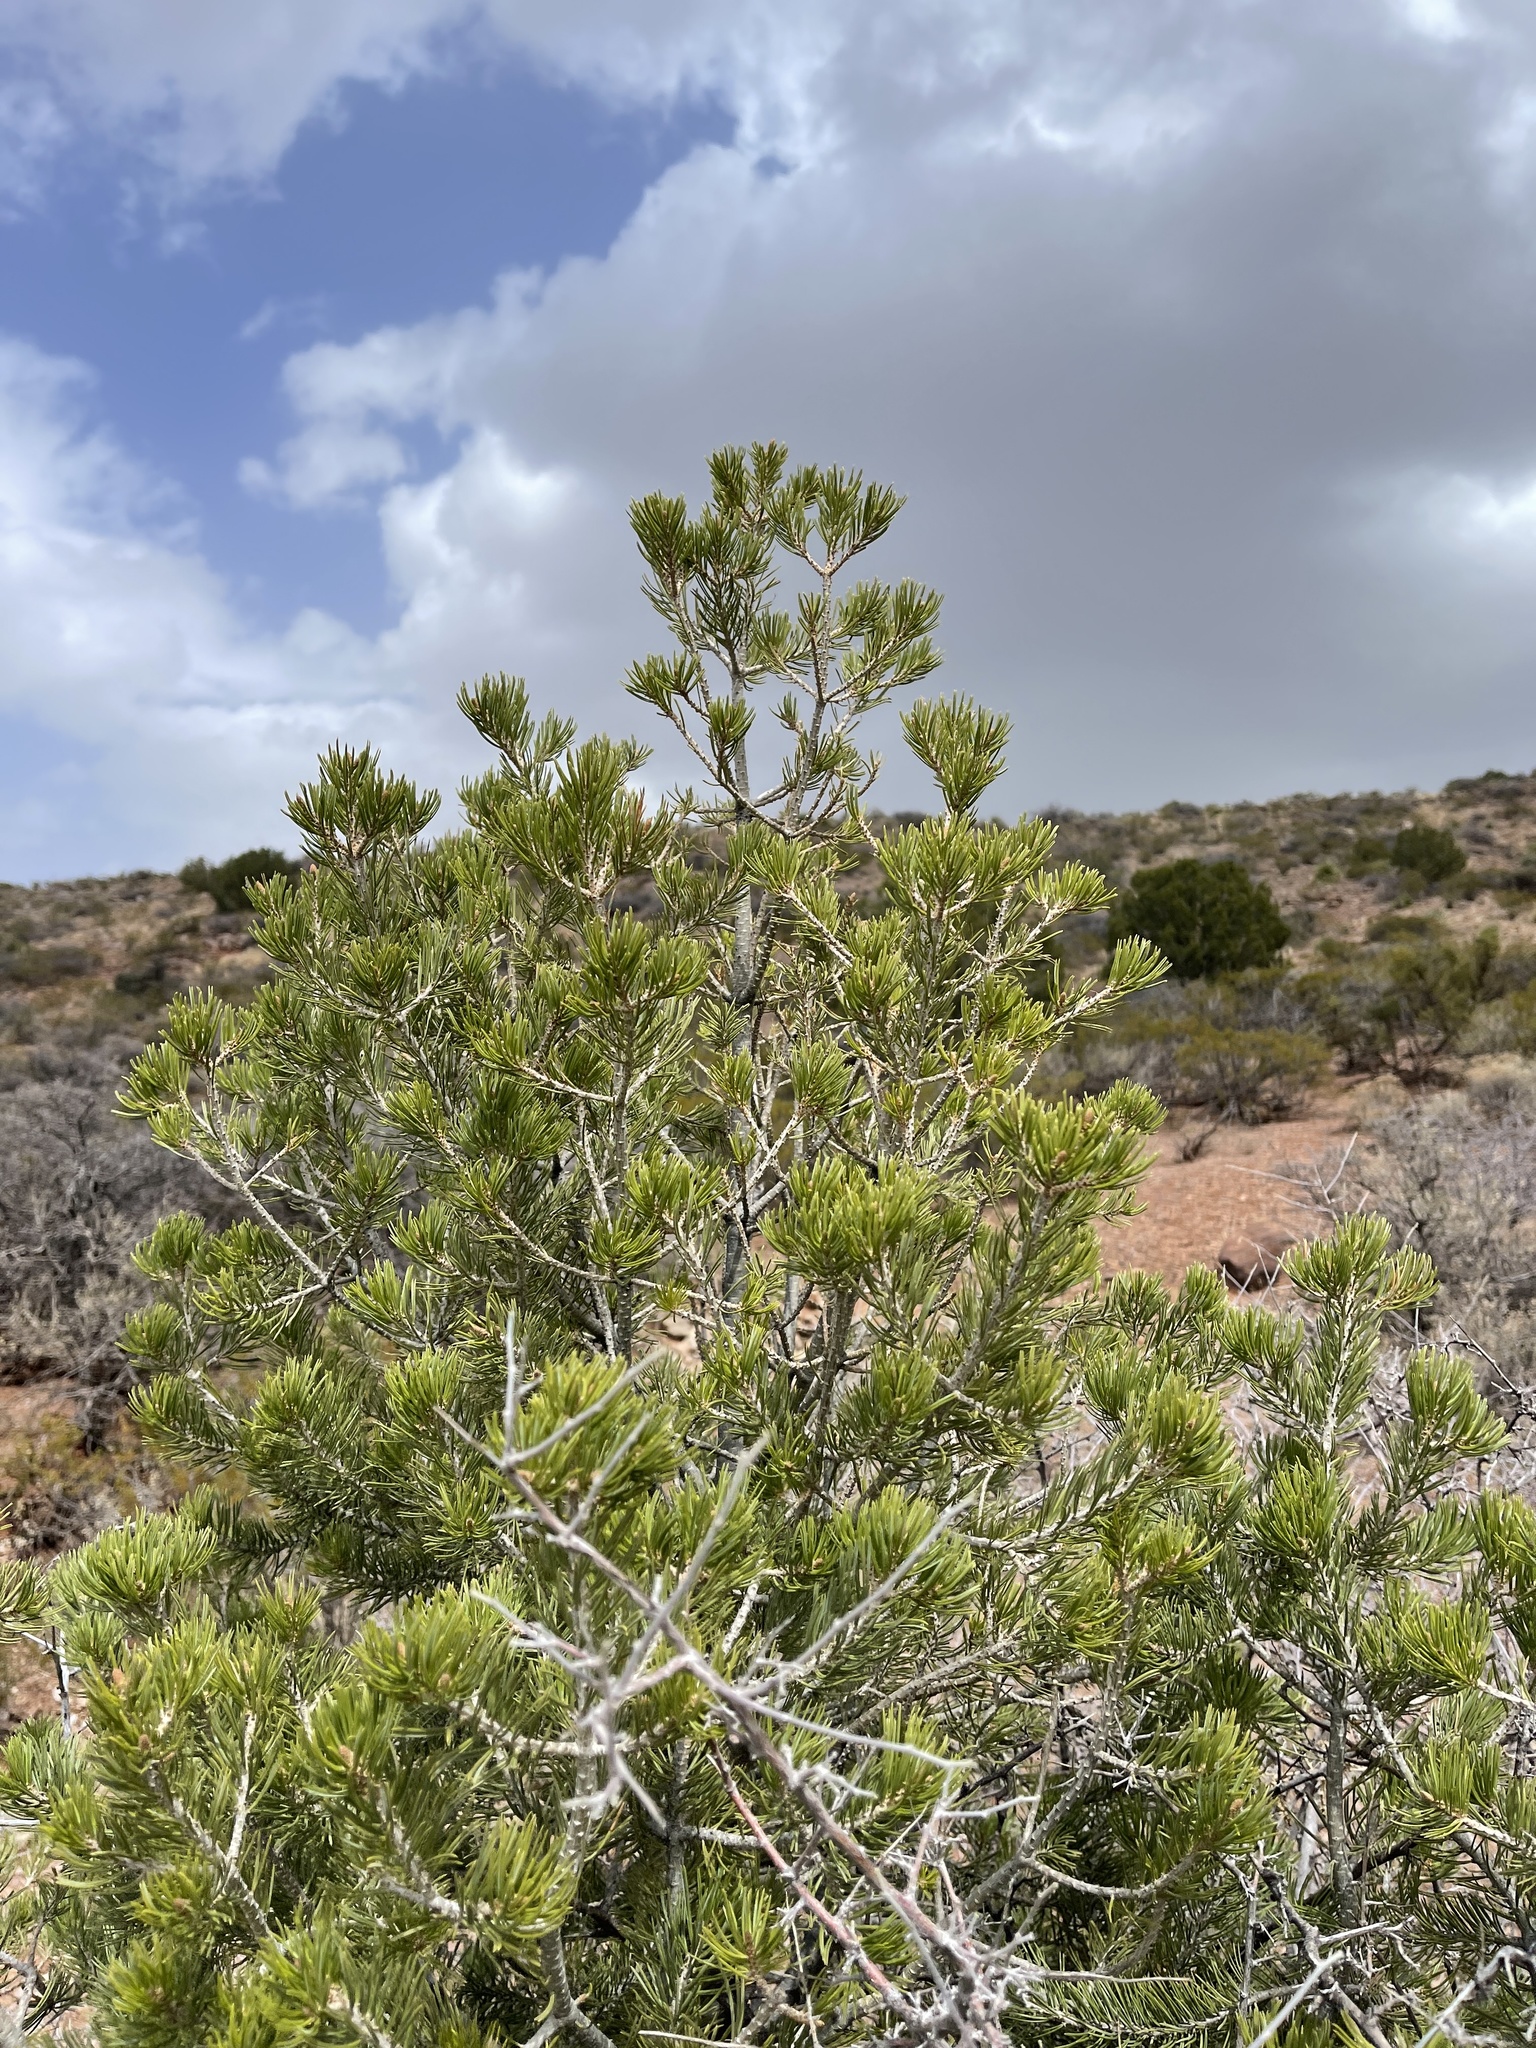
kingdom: Plantae
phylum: Tracheophyta
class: Pinopsida
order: Pinales
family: Pinaceae
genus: Pinus
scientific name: Pinus edulis
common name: Colorado pinyon
